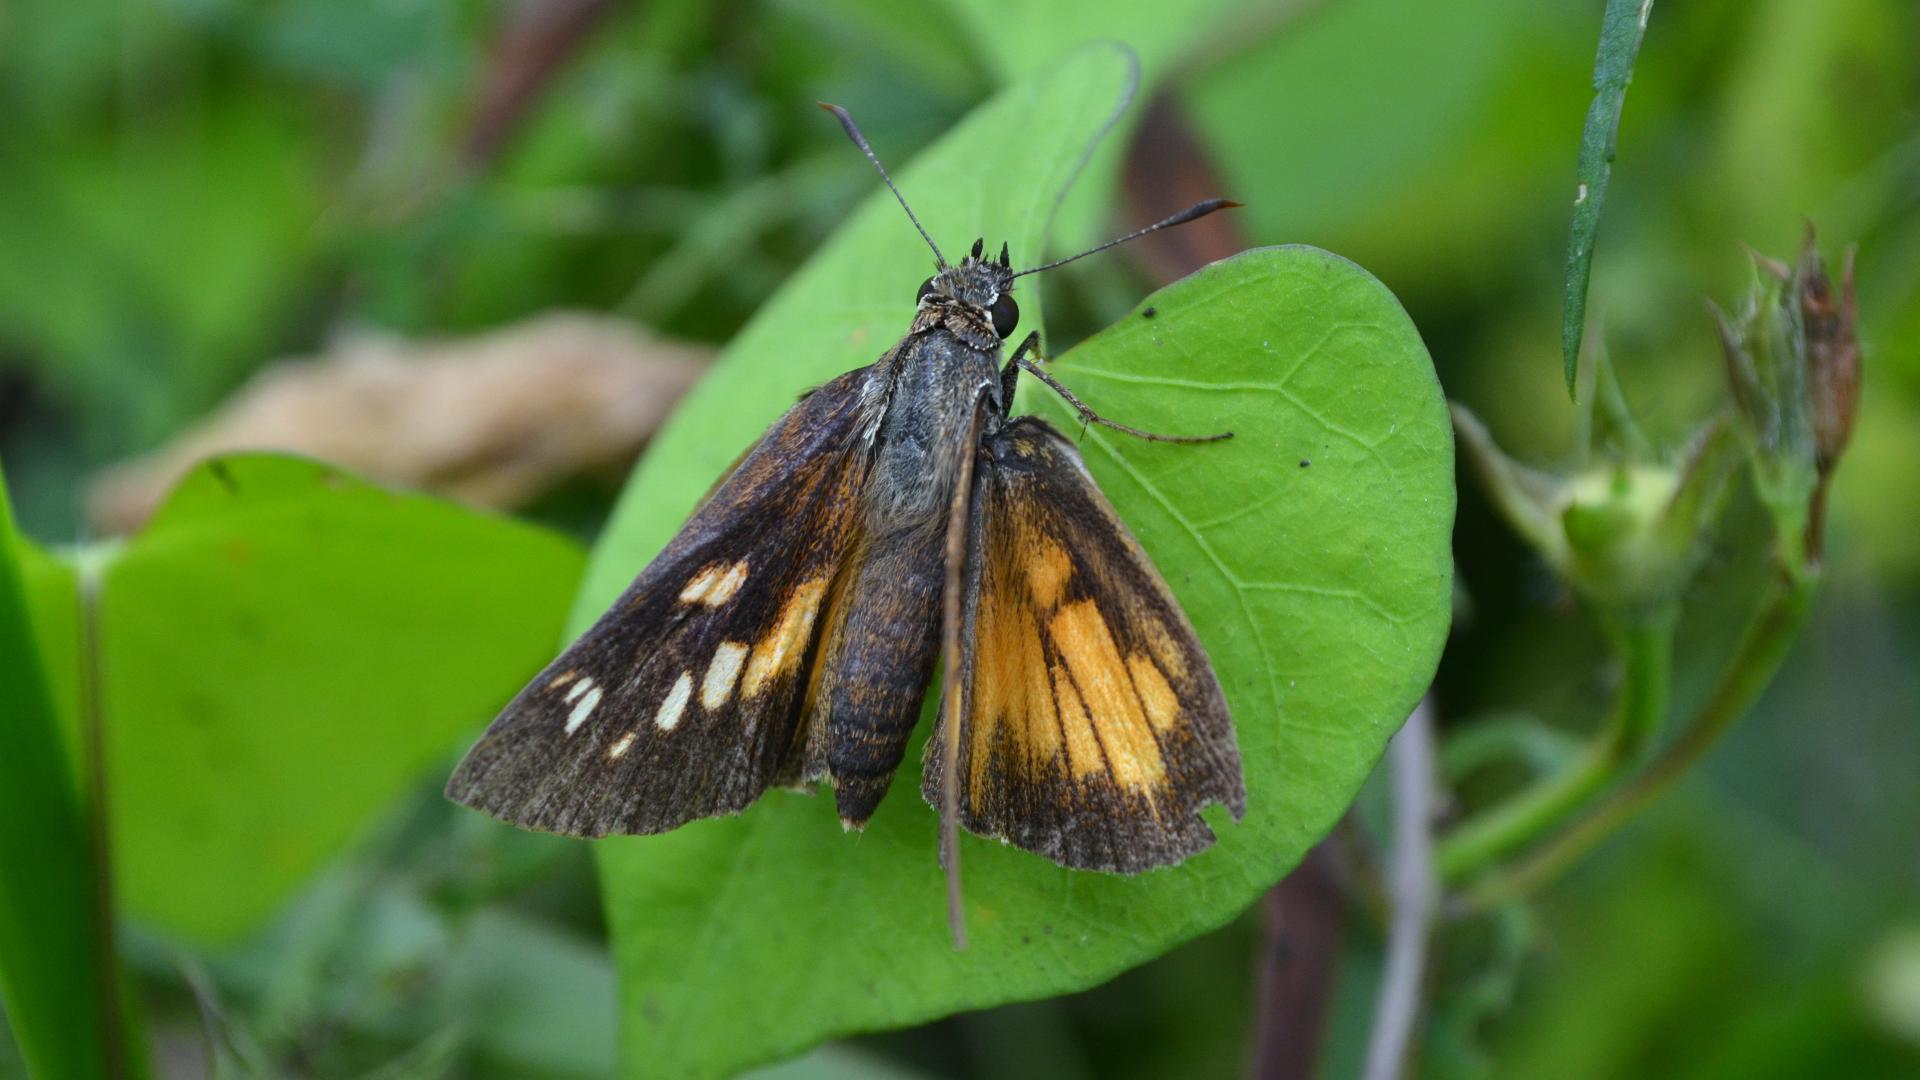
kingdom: Animalia
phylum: Arthropoda
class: Insecta
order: Lepidoptera
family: Hesperiidae
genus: Poanes
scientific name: Poanes viator
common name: Broad-winged skipper
